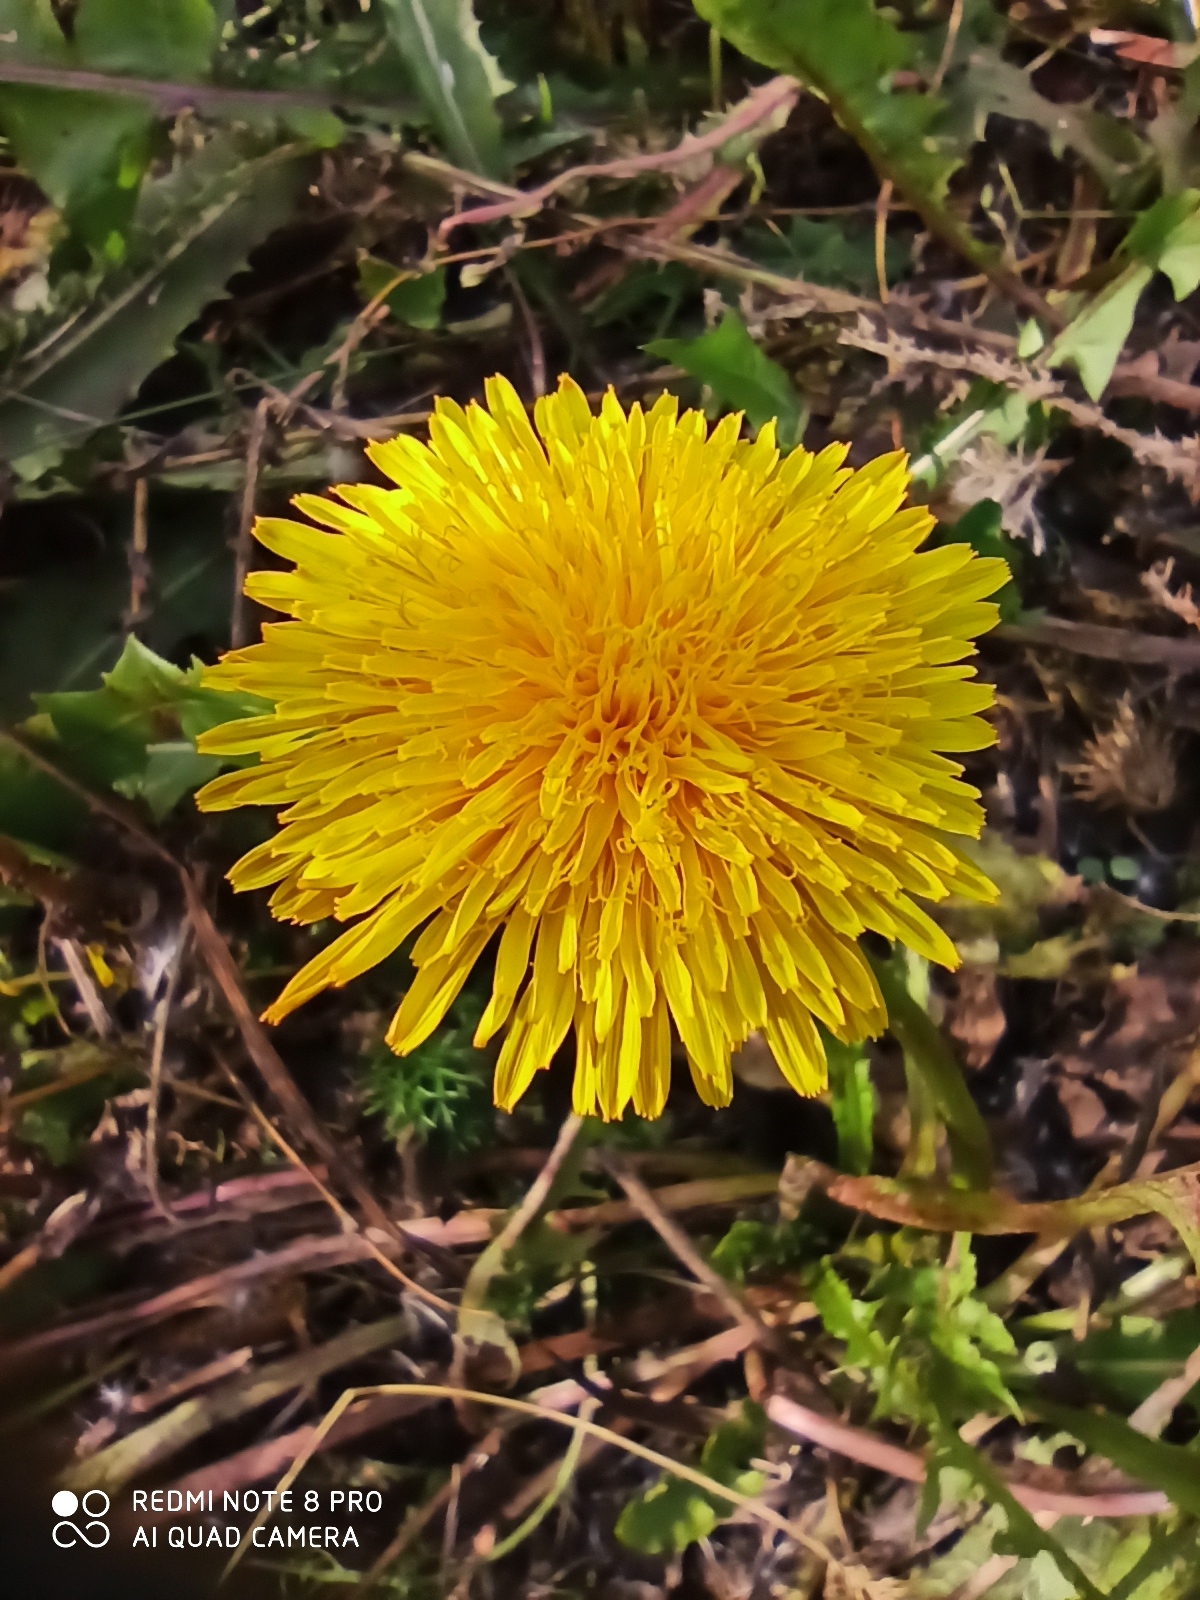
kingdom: Plantae
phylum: Tracheophyta
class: Magnoliopsida
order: Asterales
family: Asteraceae
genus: Taraxacum
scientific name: Taraxacum officinale
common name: Common dandelion
